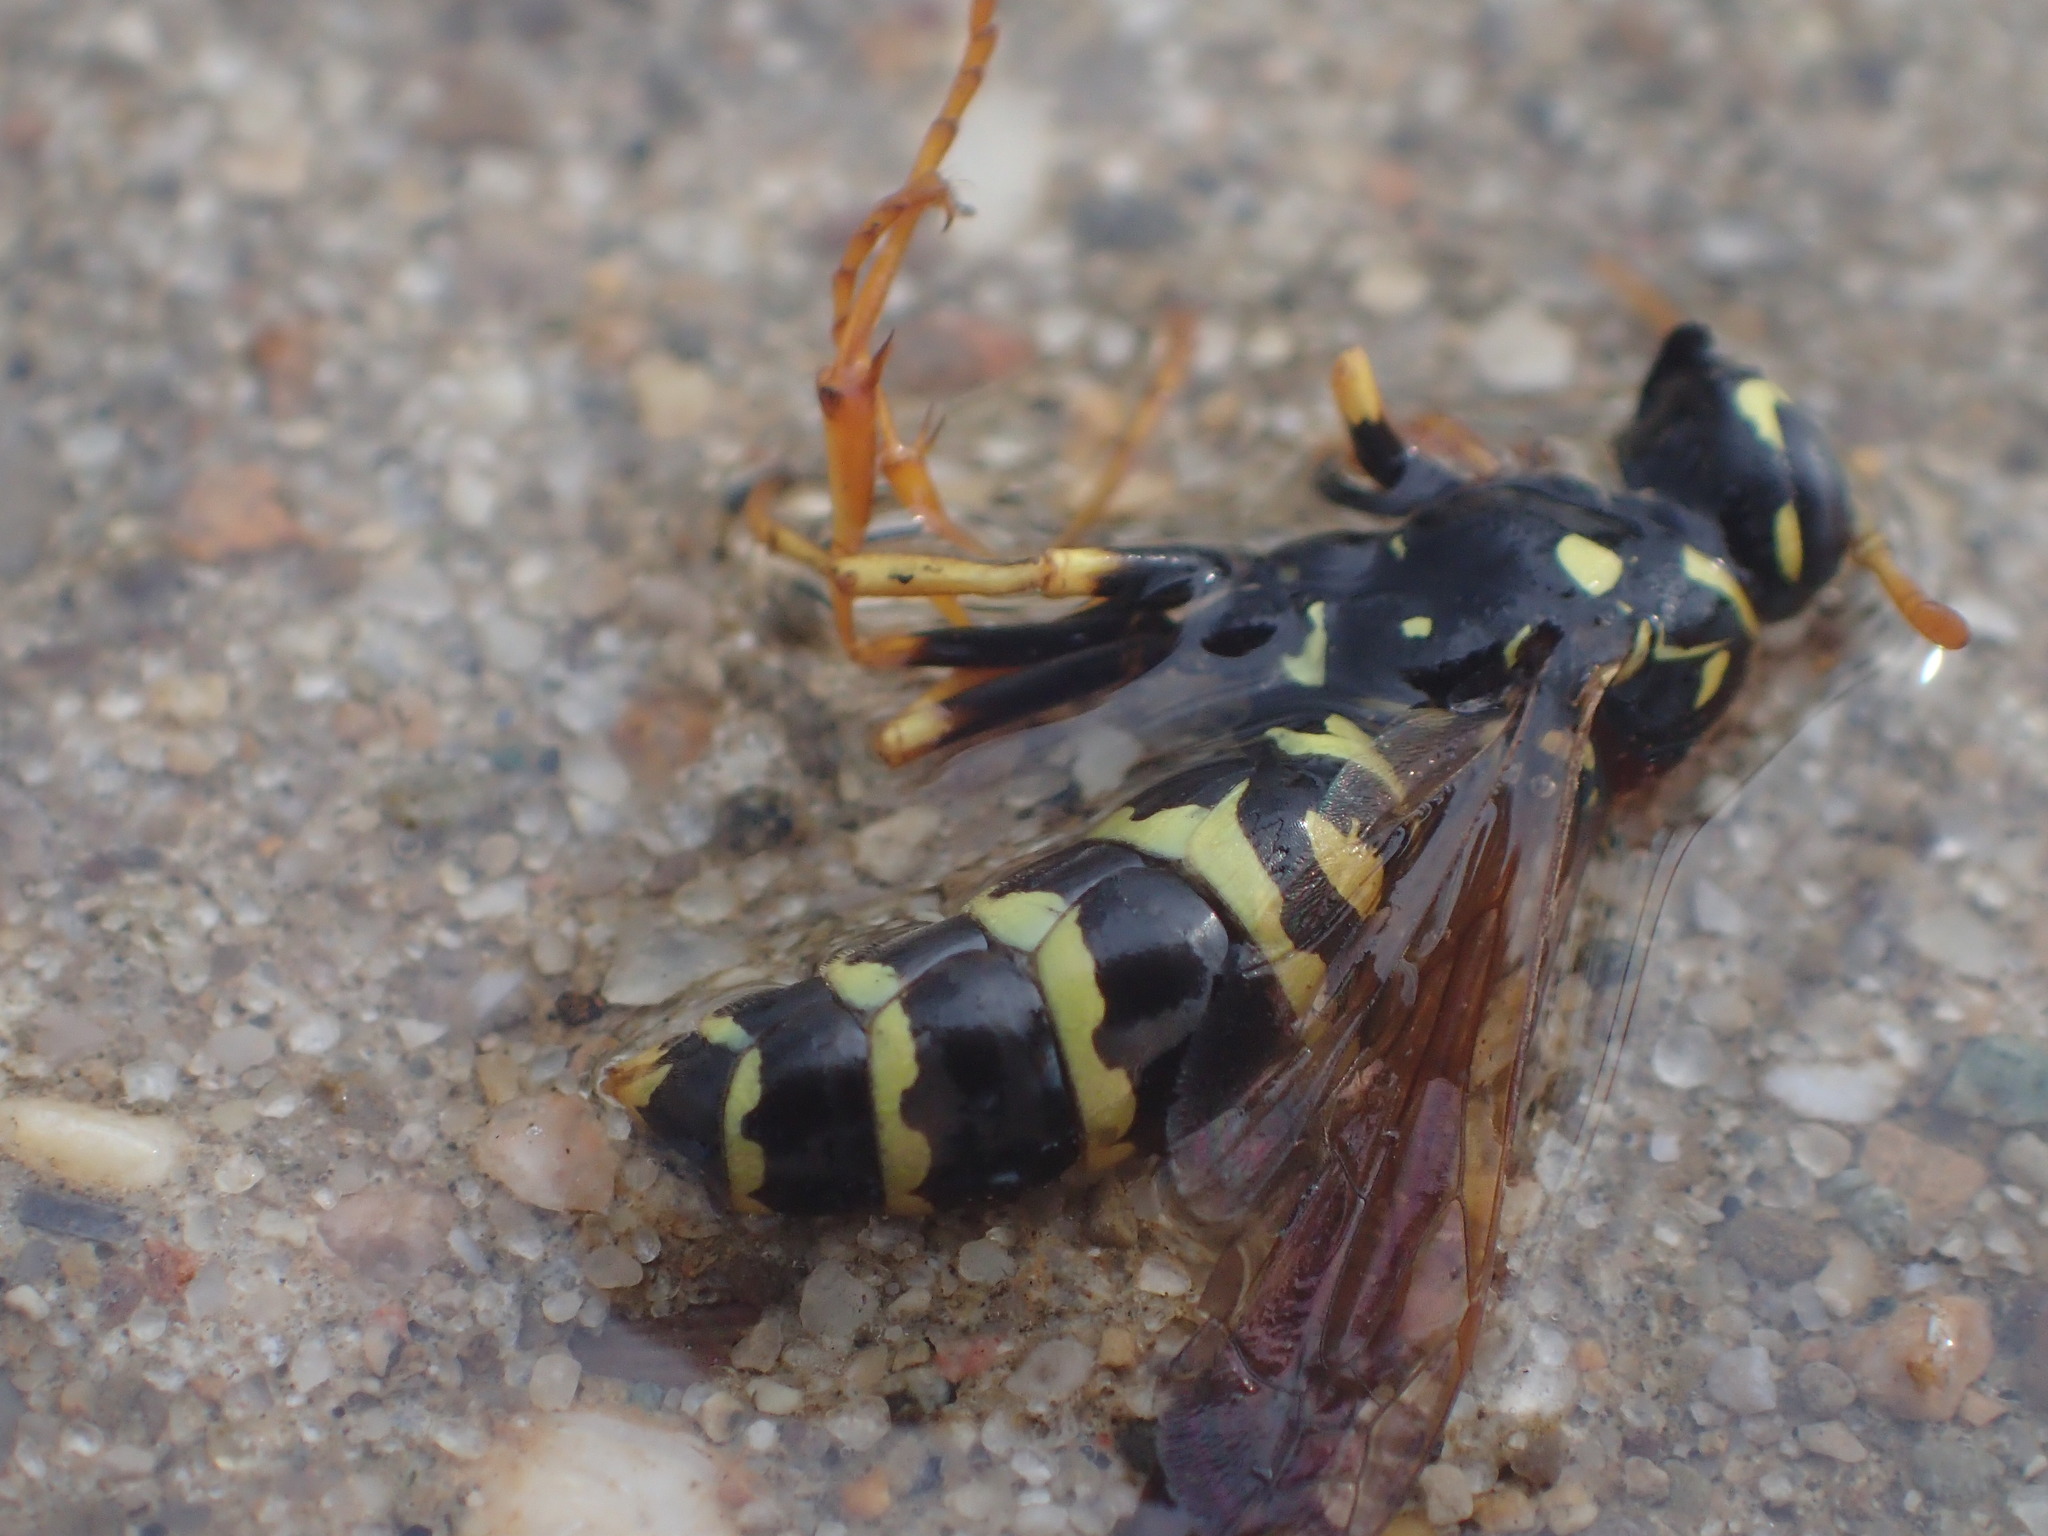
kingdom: Animalia
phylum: Arthropoda
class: Insecta
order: Hymenoptera
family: Eumenidae
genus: Polistes
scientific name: Polistes dominula
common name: Paper wasp
